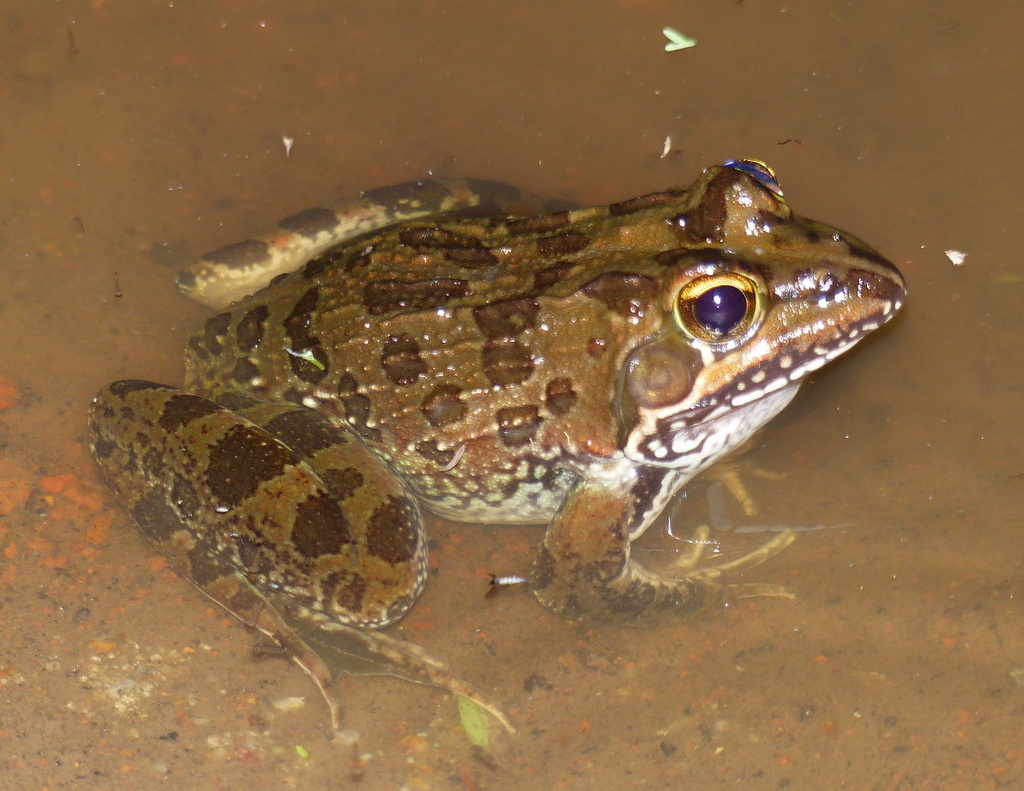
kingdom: Animalia
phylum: Chordata
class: Amphibia
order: Anura
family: Pyxicephalidae
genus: Amietia
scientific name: Amietia delalandii
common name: Delalande's river frog
